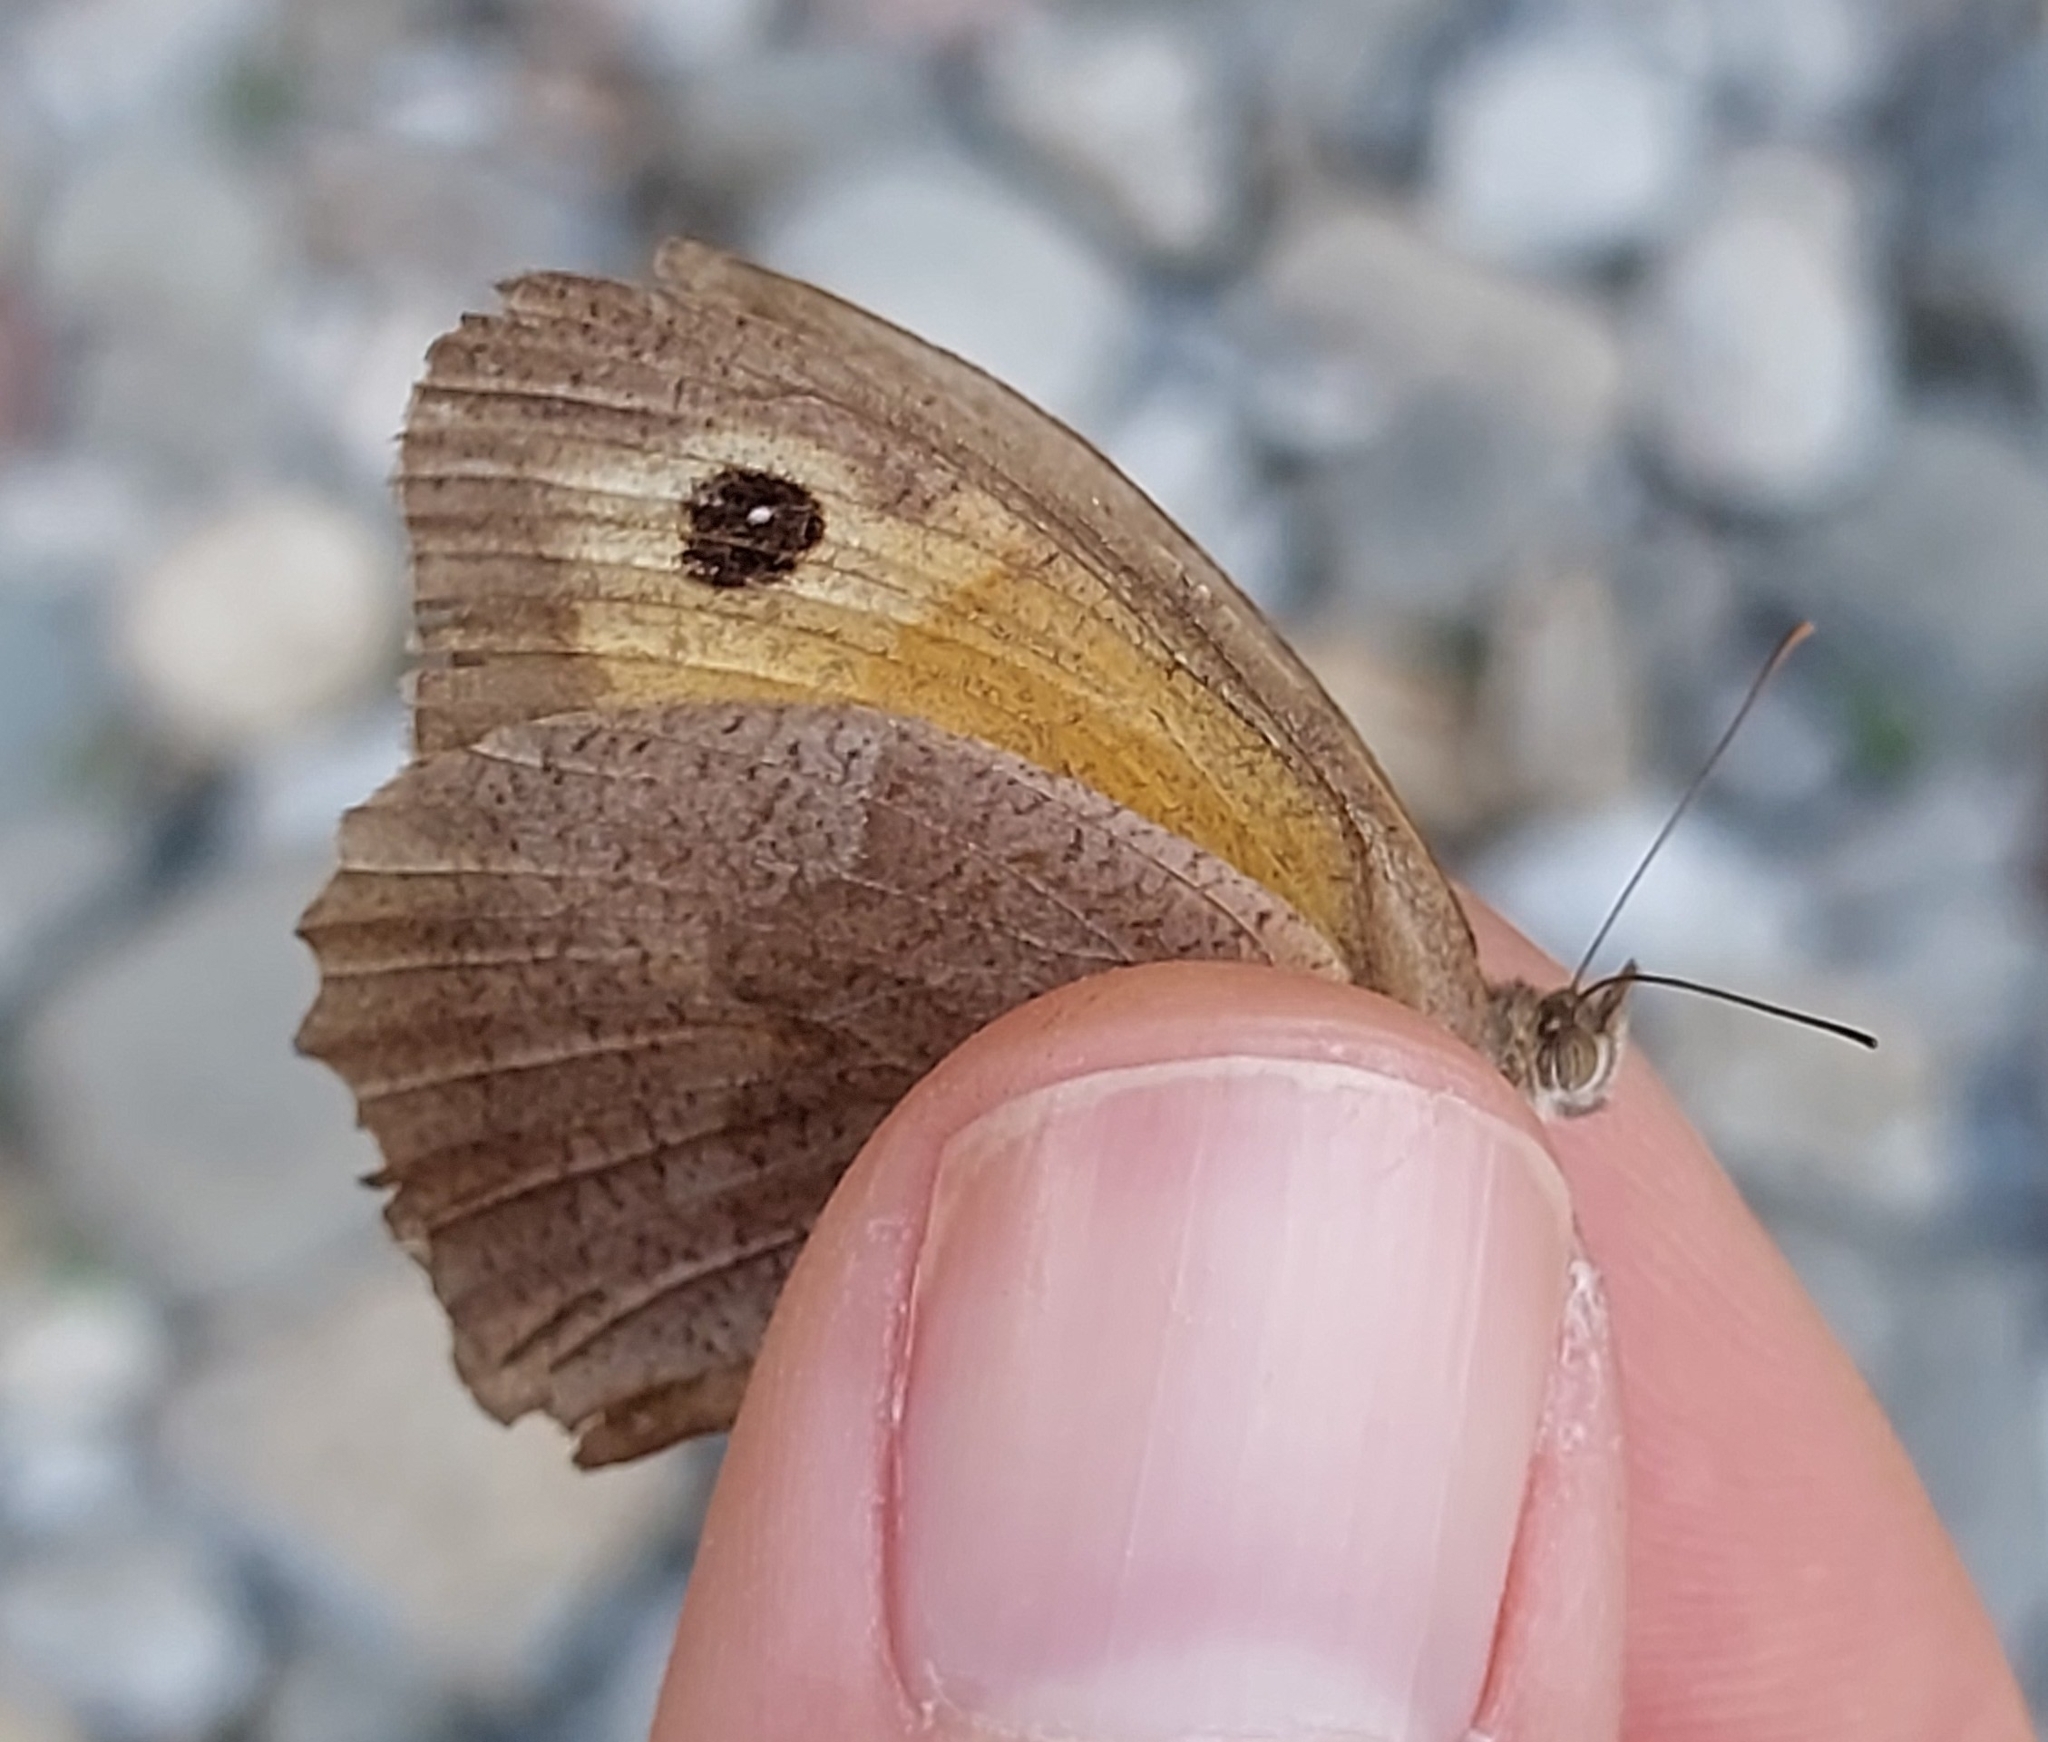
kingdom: Animalia
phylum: Arthropoda
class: Insecta
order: Lepidoptera
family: Nymphalidae
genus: Maniola
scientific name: Maniola jurtina
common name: Meadow brown
